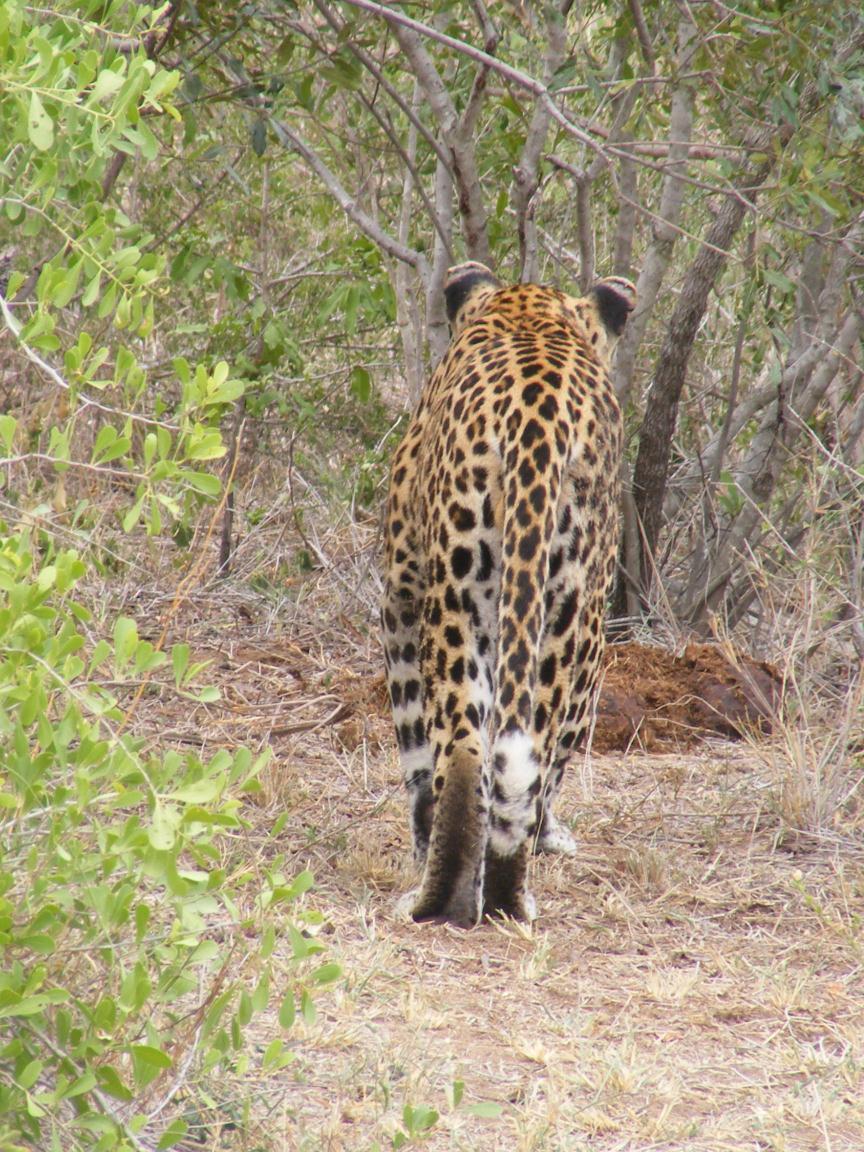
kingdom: Animalia
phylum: Chordata
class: Mammalia
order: Carnivora
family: Felidae
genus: Panthera
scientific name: Panthera pardus
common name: Leopard
